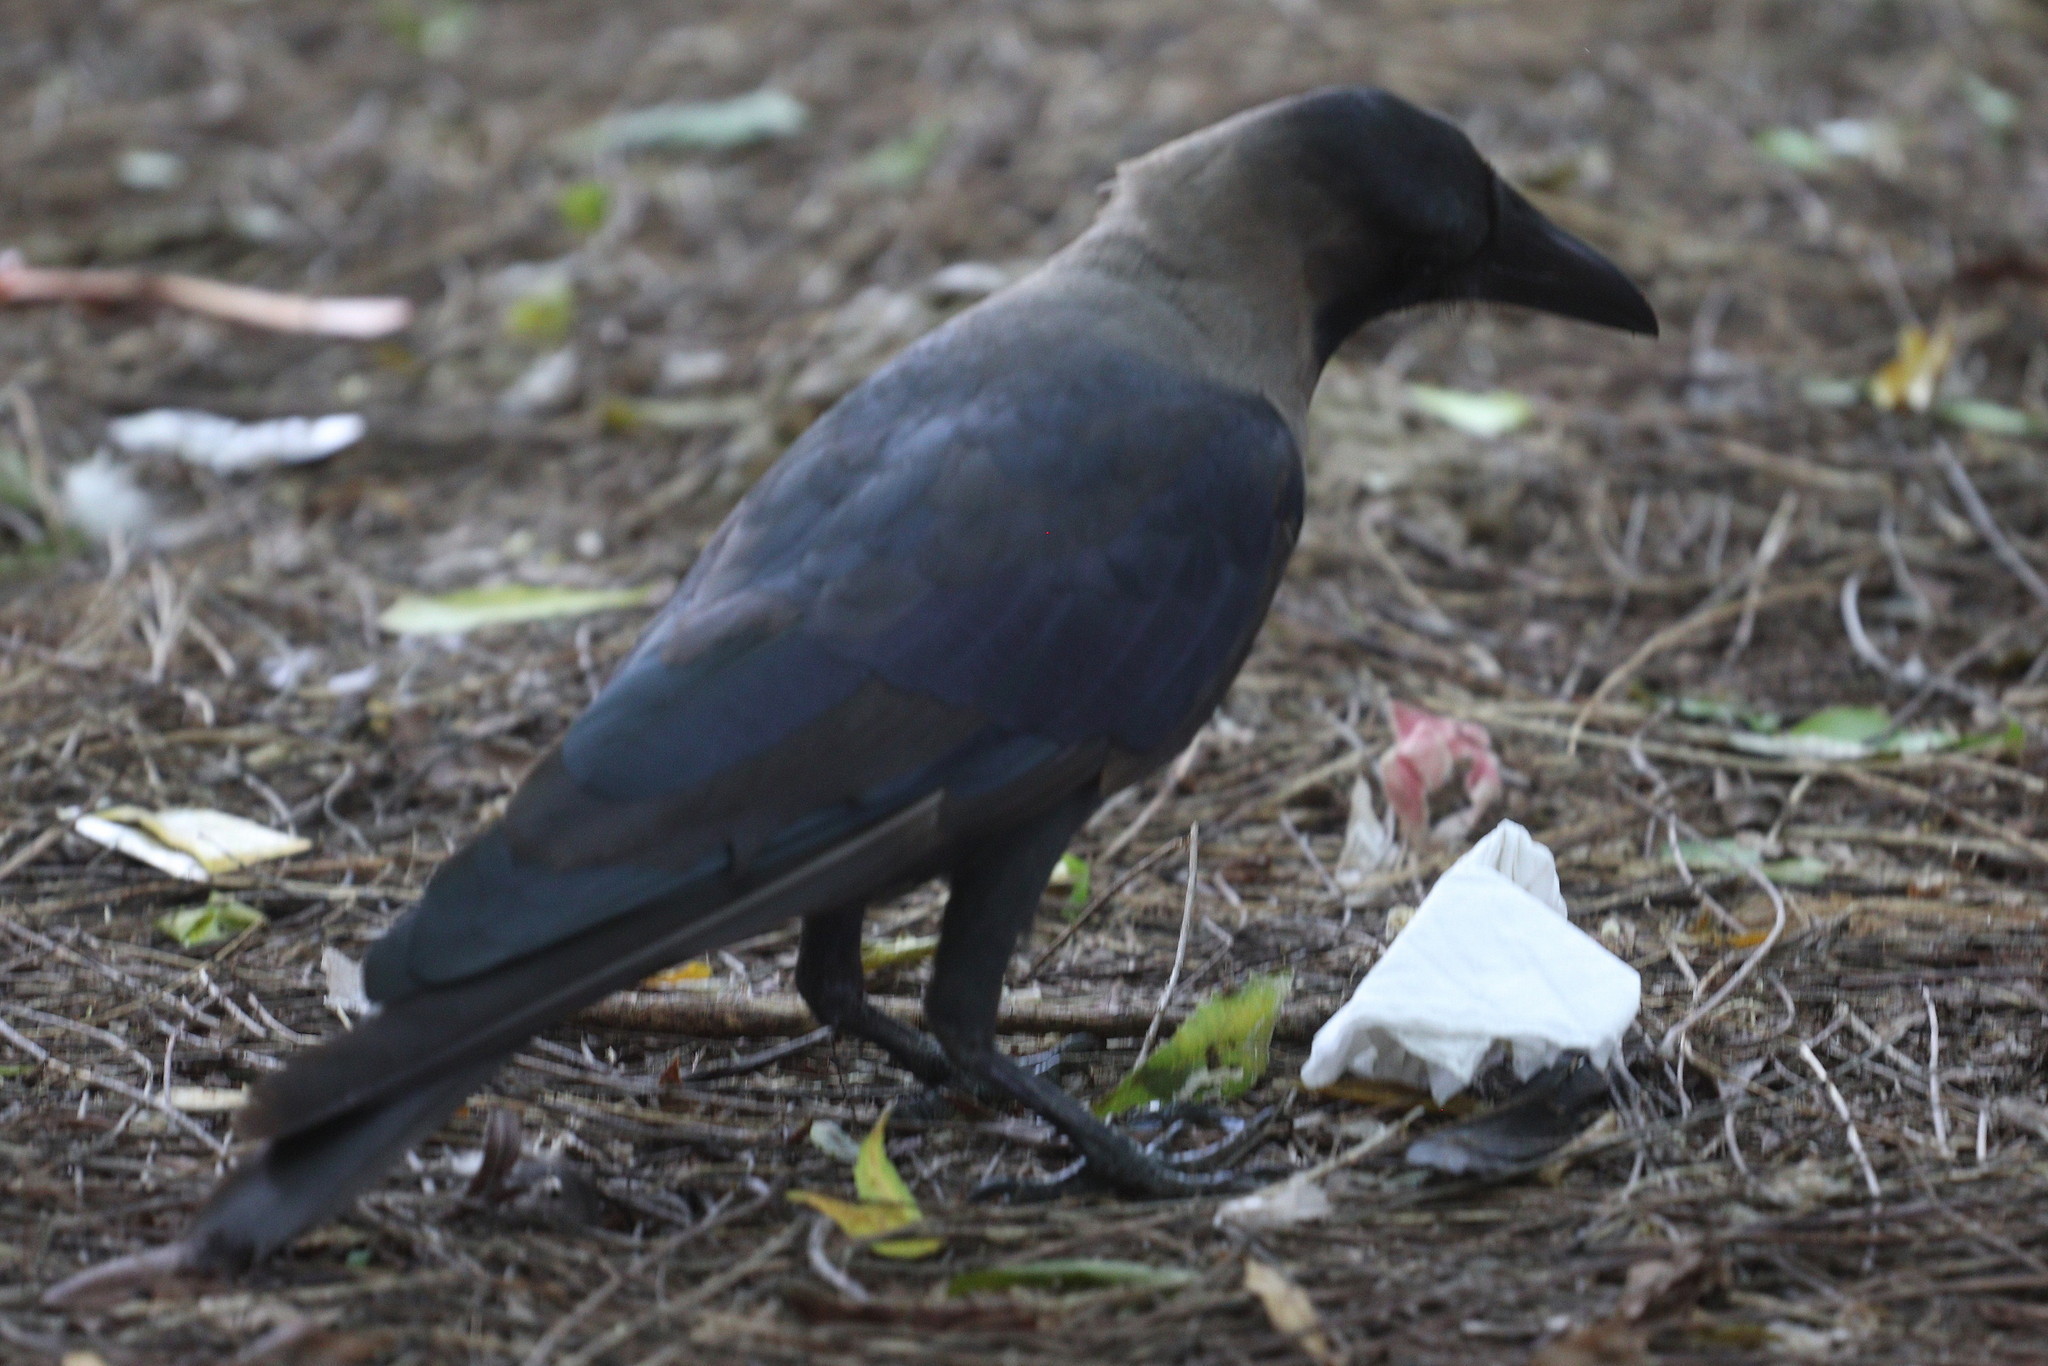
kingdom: Animalia
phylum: Chordata
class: Aves
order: Passeriformes
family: Corvidae
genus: Corvus
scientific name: Corvus splendens
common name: House crow
